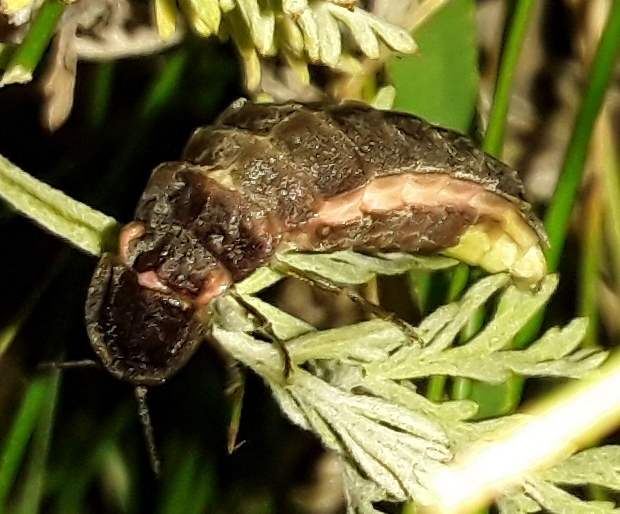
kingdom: Animalia
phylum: Arthropoda
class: Insecta
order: Coleoptera
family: Lampyridae
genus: Lampyris
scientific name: Lampyris noctiluca
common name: Glow-worm
